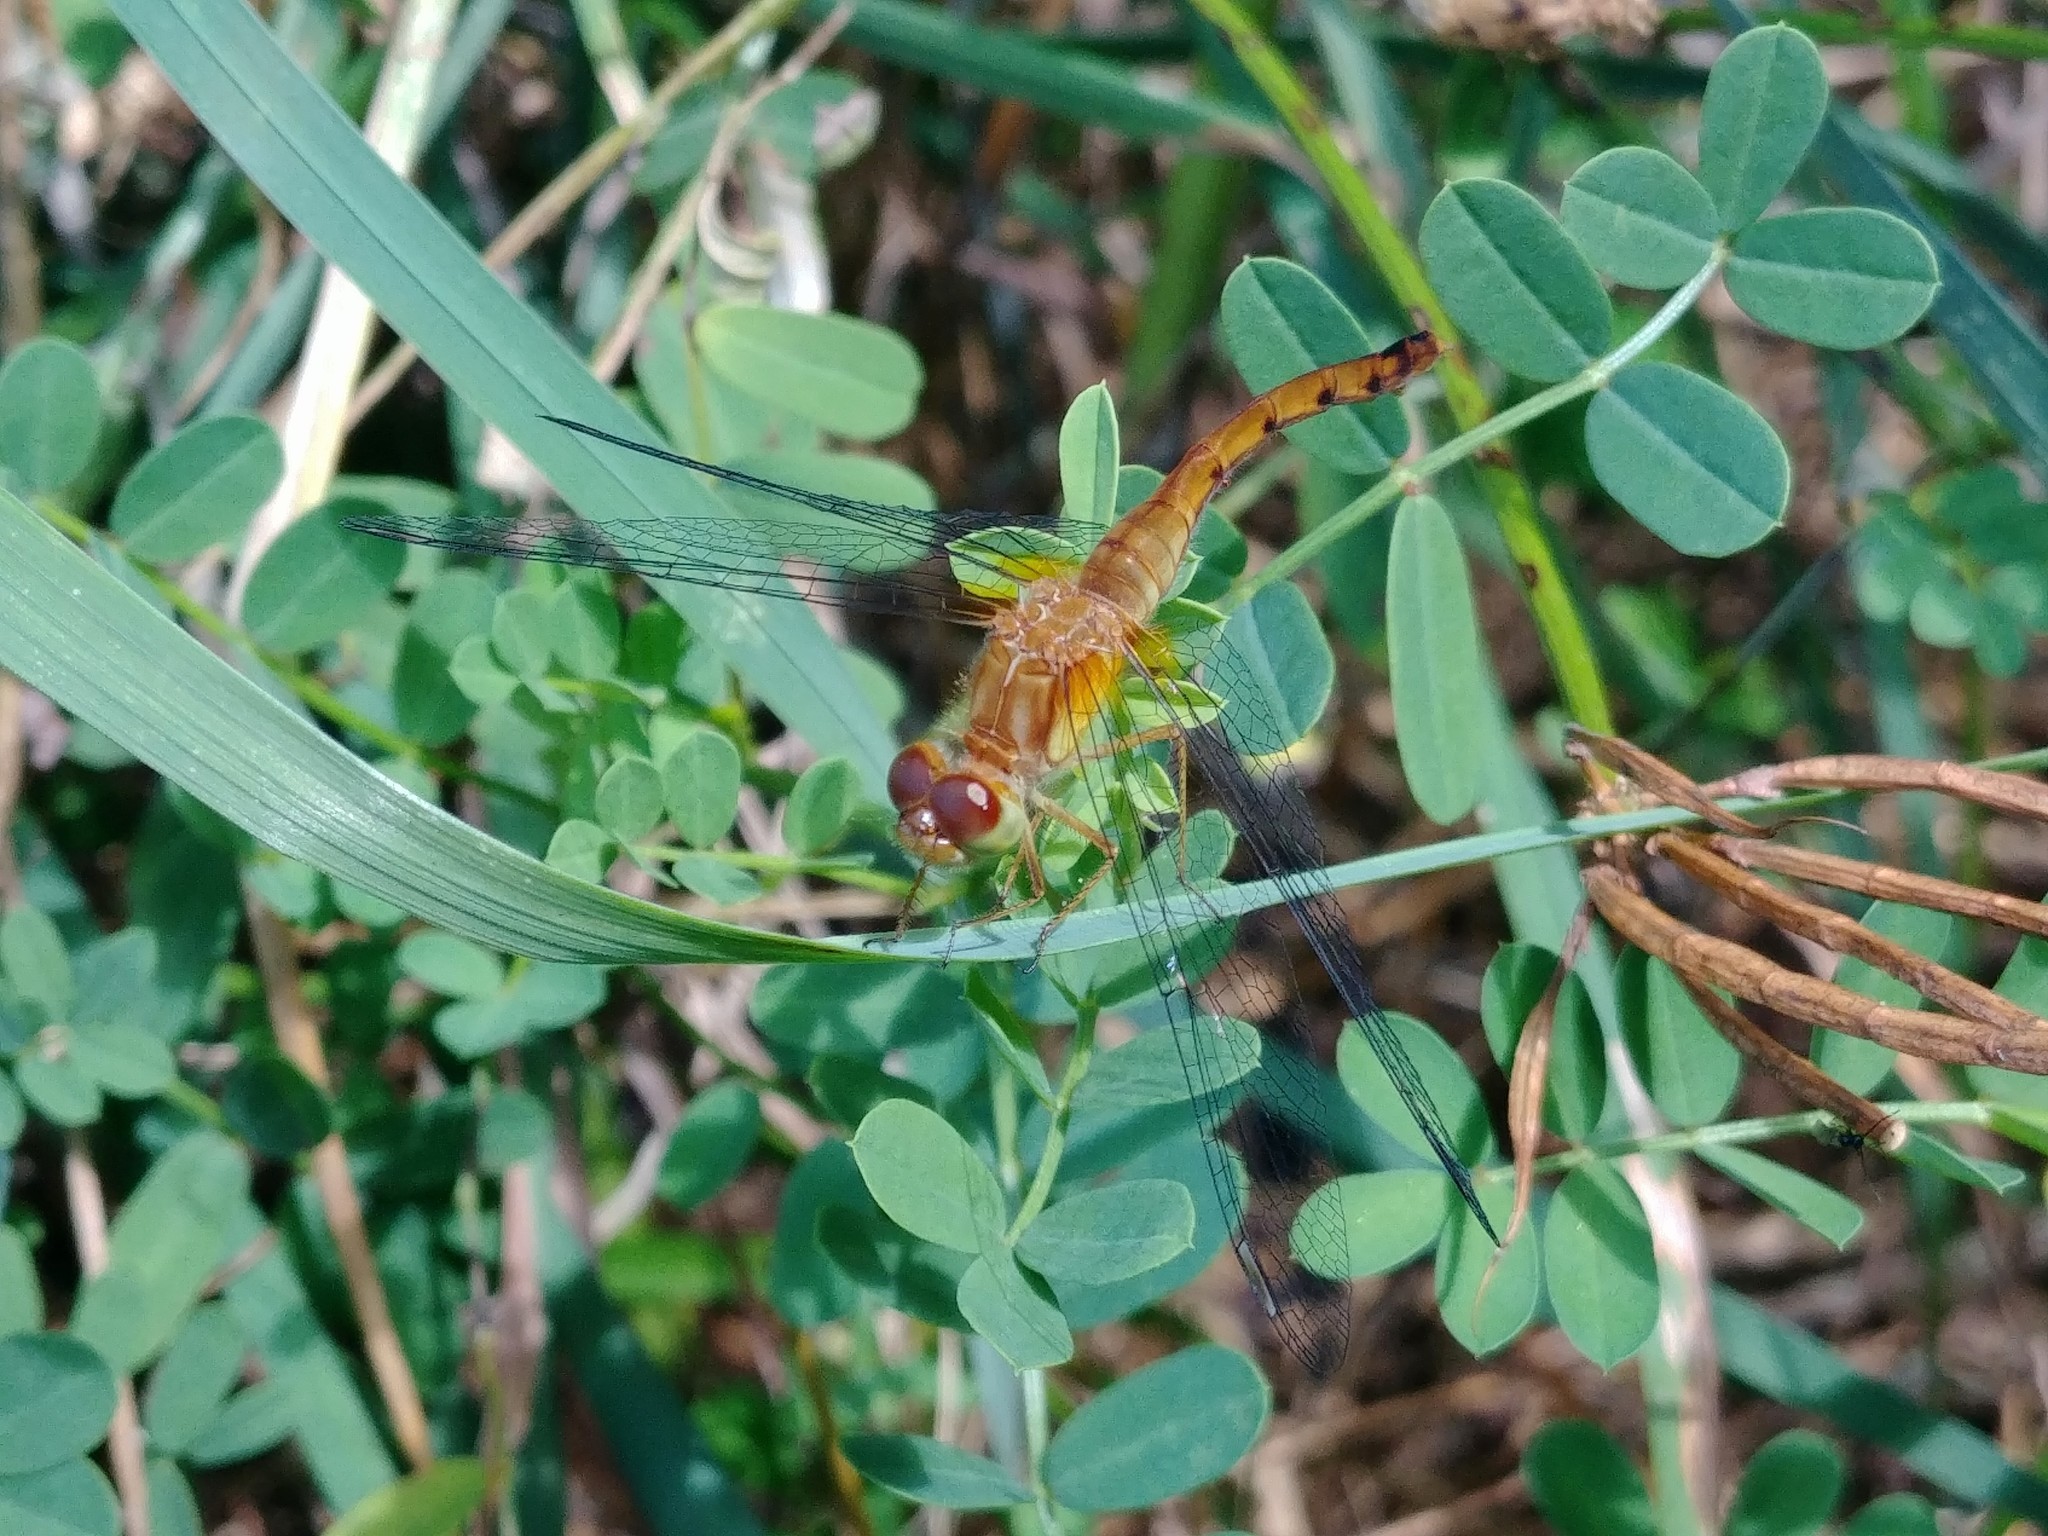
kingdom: Animalia
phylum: Arthropoda
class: Insecta
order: Odonata
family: Libellulidae
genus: Sympetrum
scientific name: Sympetrum vicinum
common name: Autumn meadowhawk
